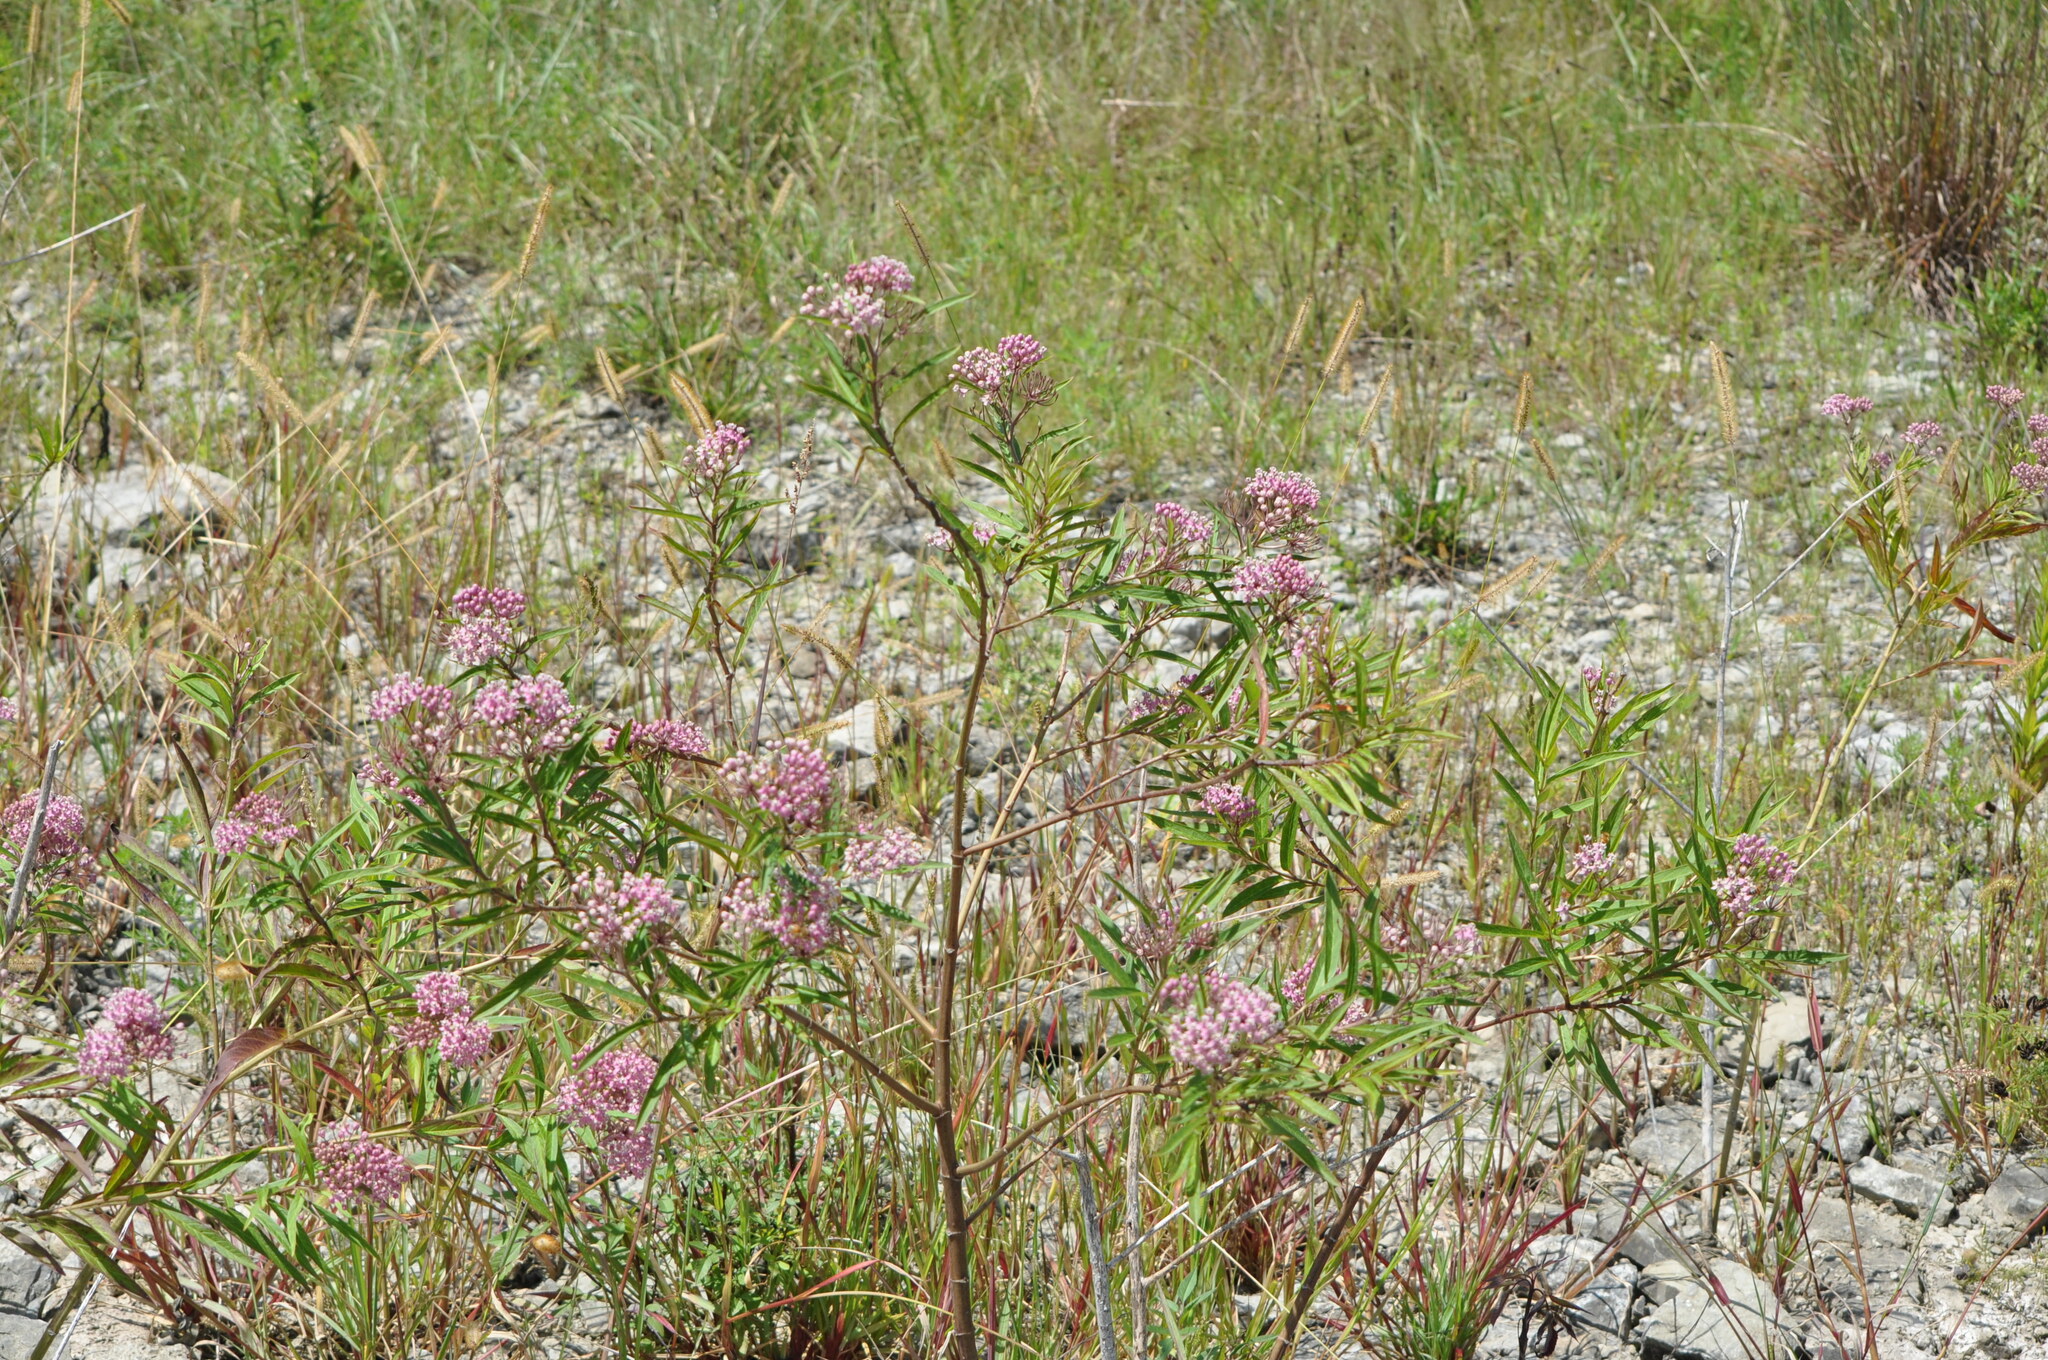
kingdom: Plantae
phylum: Tracheophyta
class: Magnoliopsida
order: Gentianales
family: Apocynaceae
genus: Asclepias
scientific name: Asclepias incarnata
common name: Swamp milkweed
